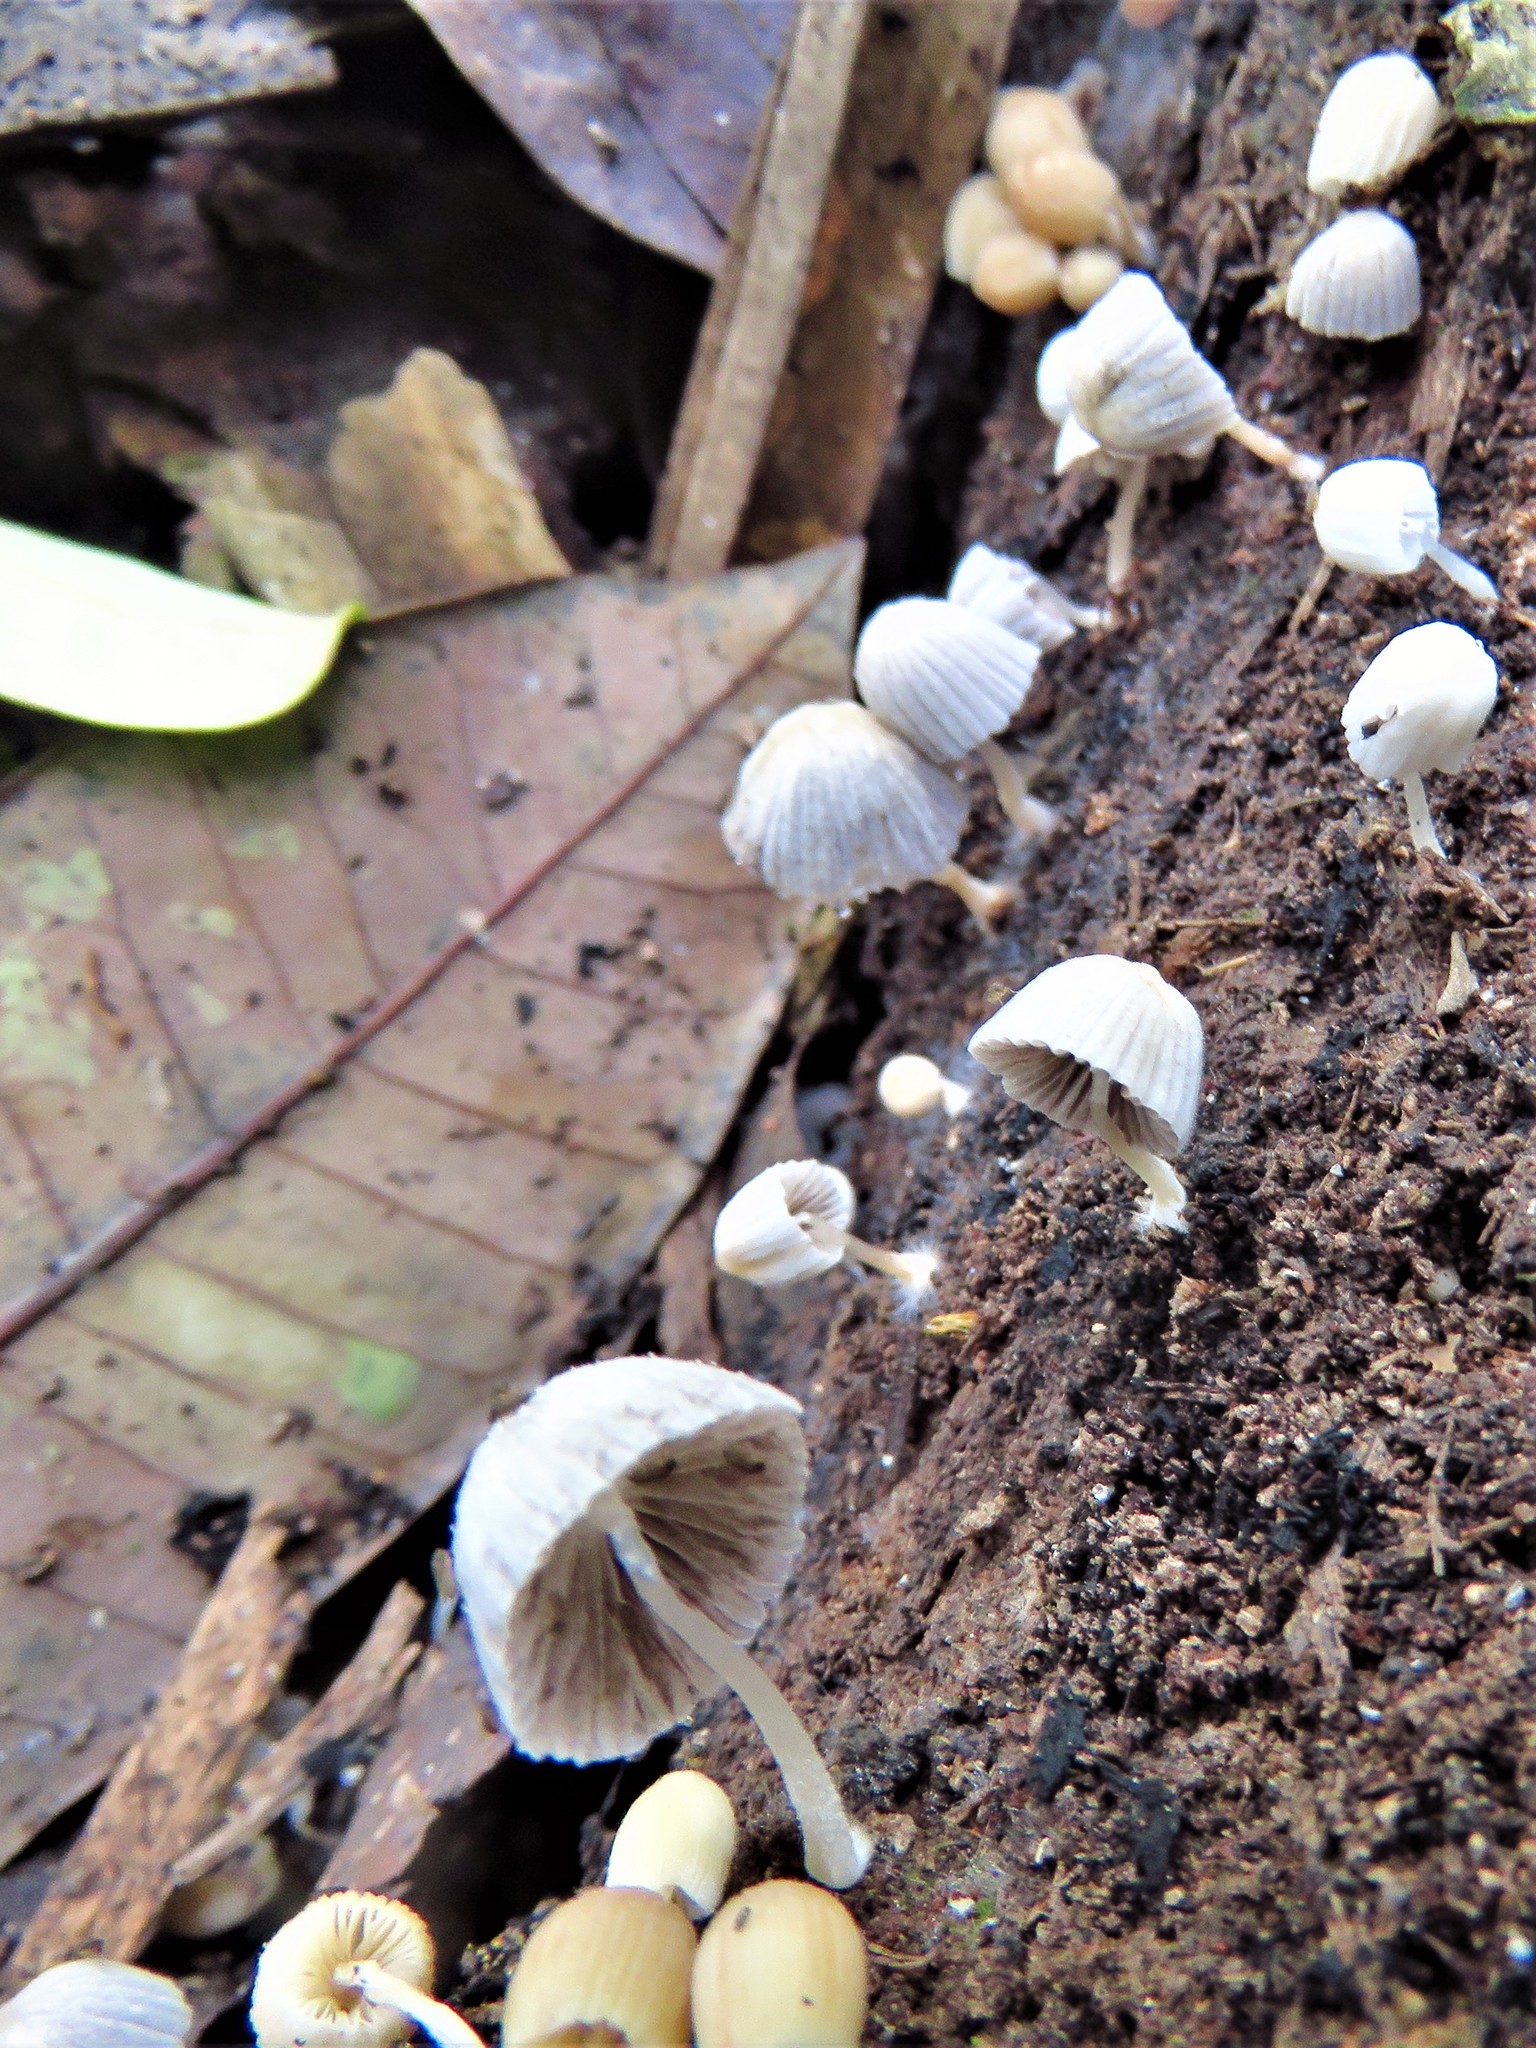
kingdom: Fungi
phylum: Basidiomycota
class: Agaricomycetes
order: Agaricales
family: Psathyrellaceae
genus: Coprinellus
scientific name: Coprinellus disseminatus
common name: Fairies' bonnets
